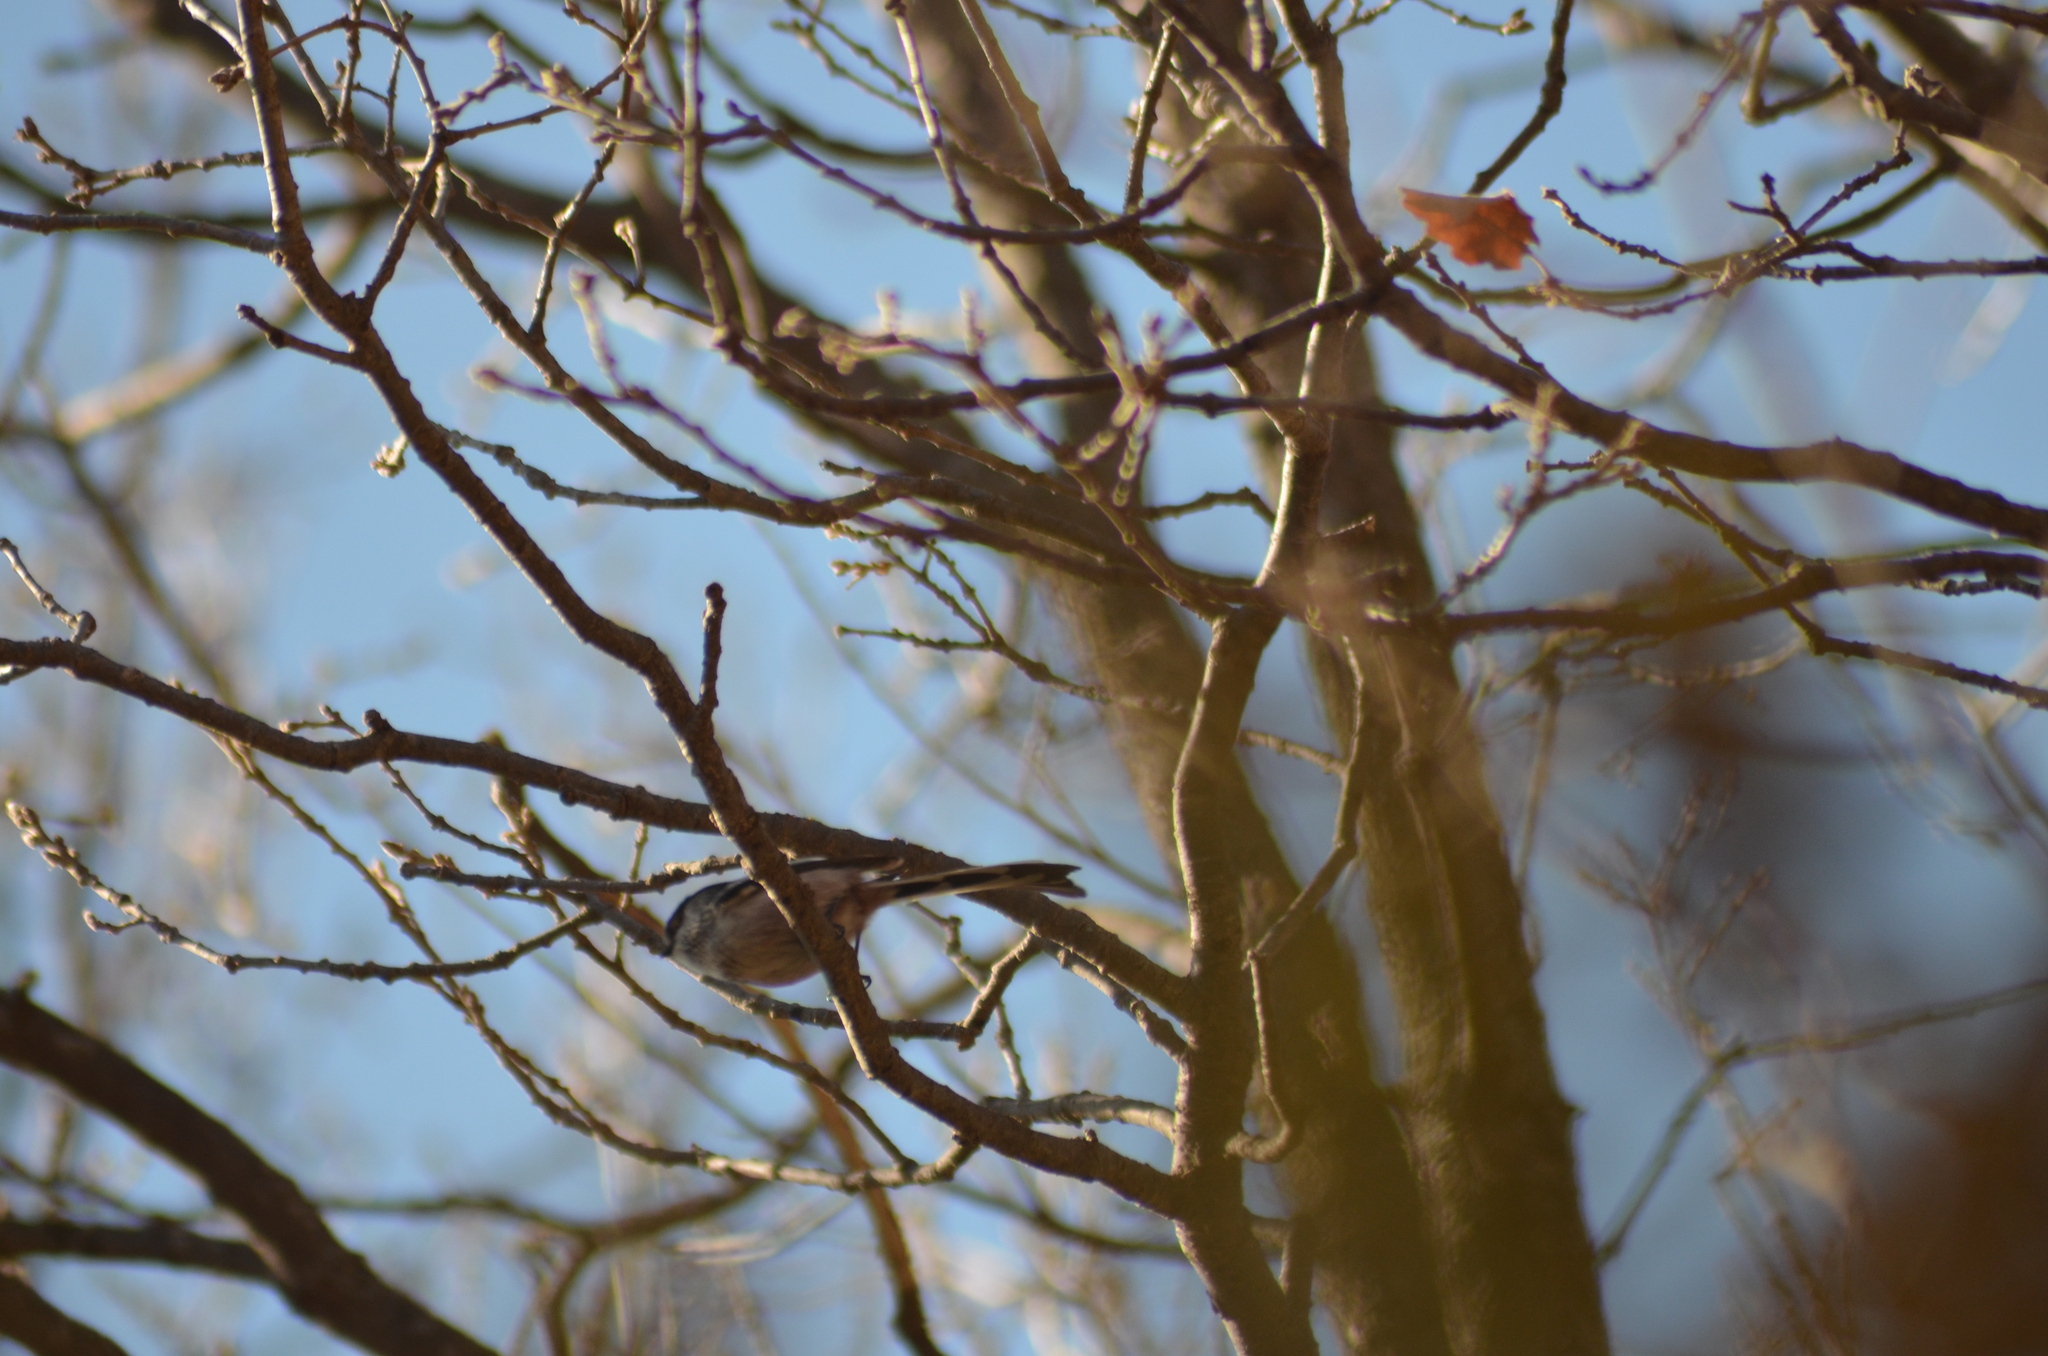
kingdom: Animalia
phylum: Chordata
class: Aves
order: Passeriformes
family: Aegithalidae
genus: Aegithalos
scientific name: Aegithalos caudatus
